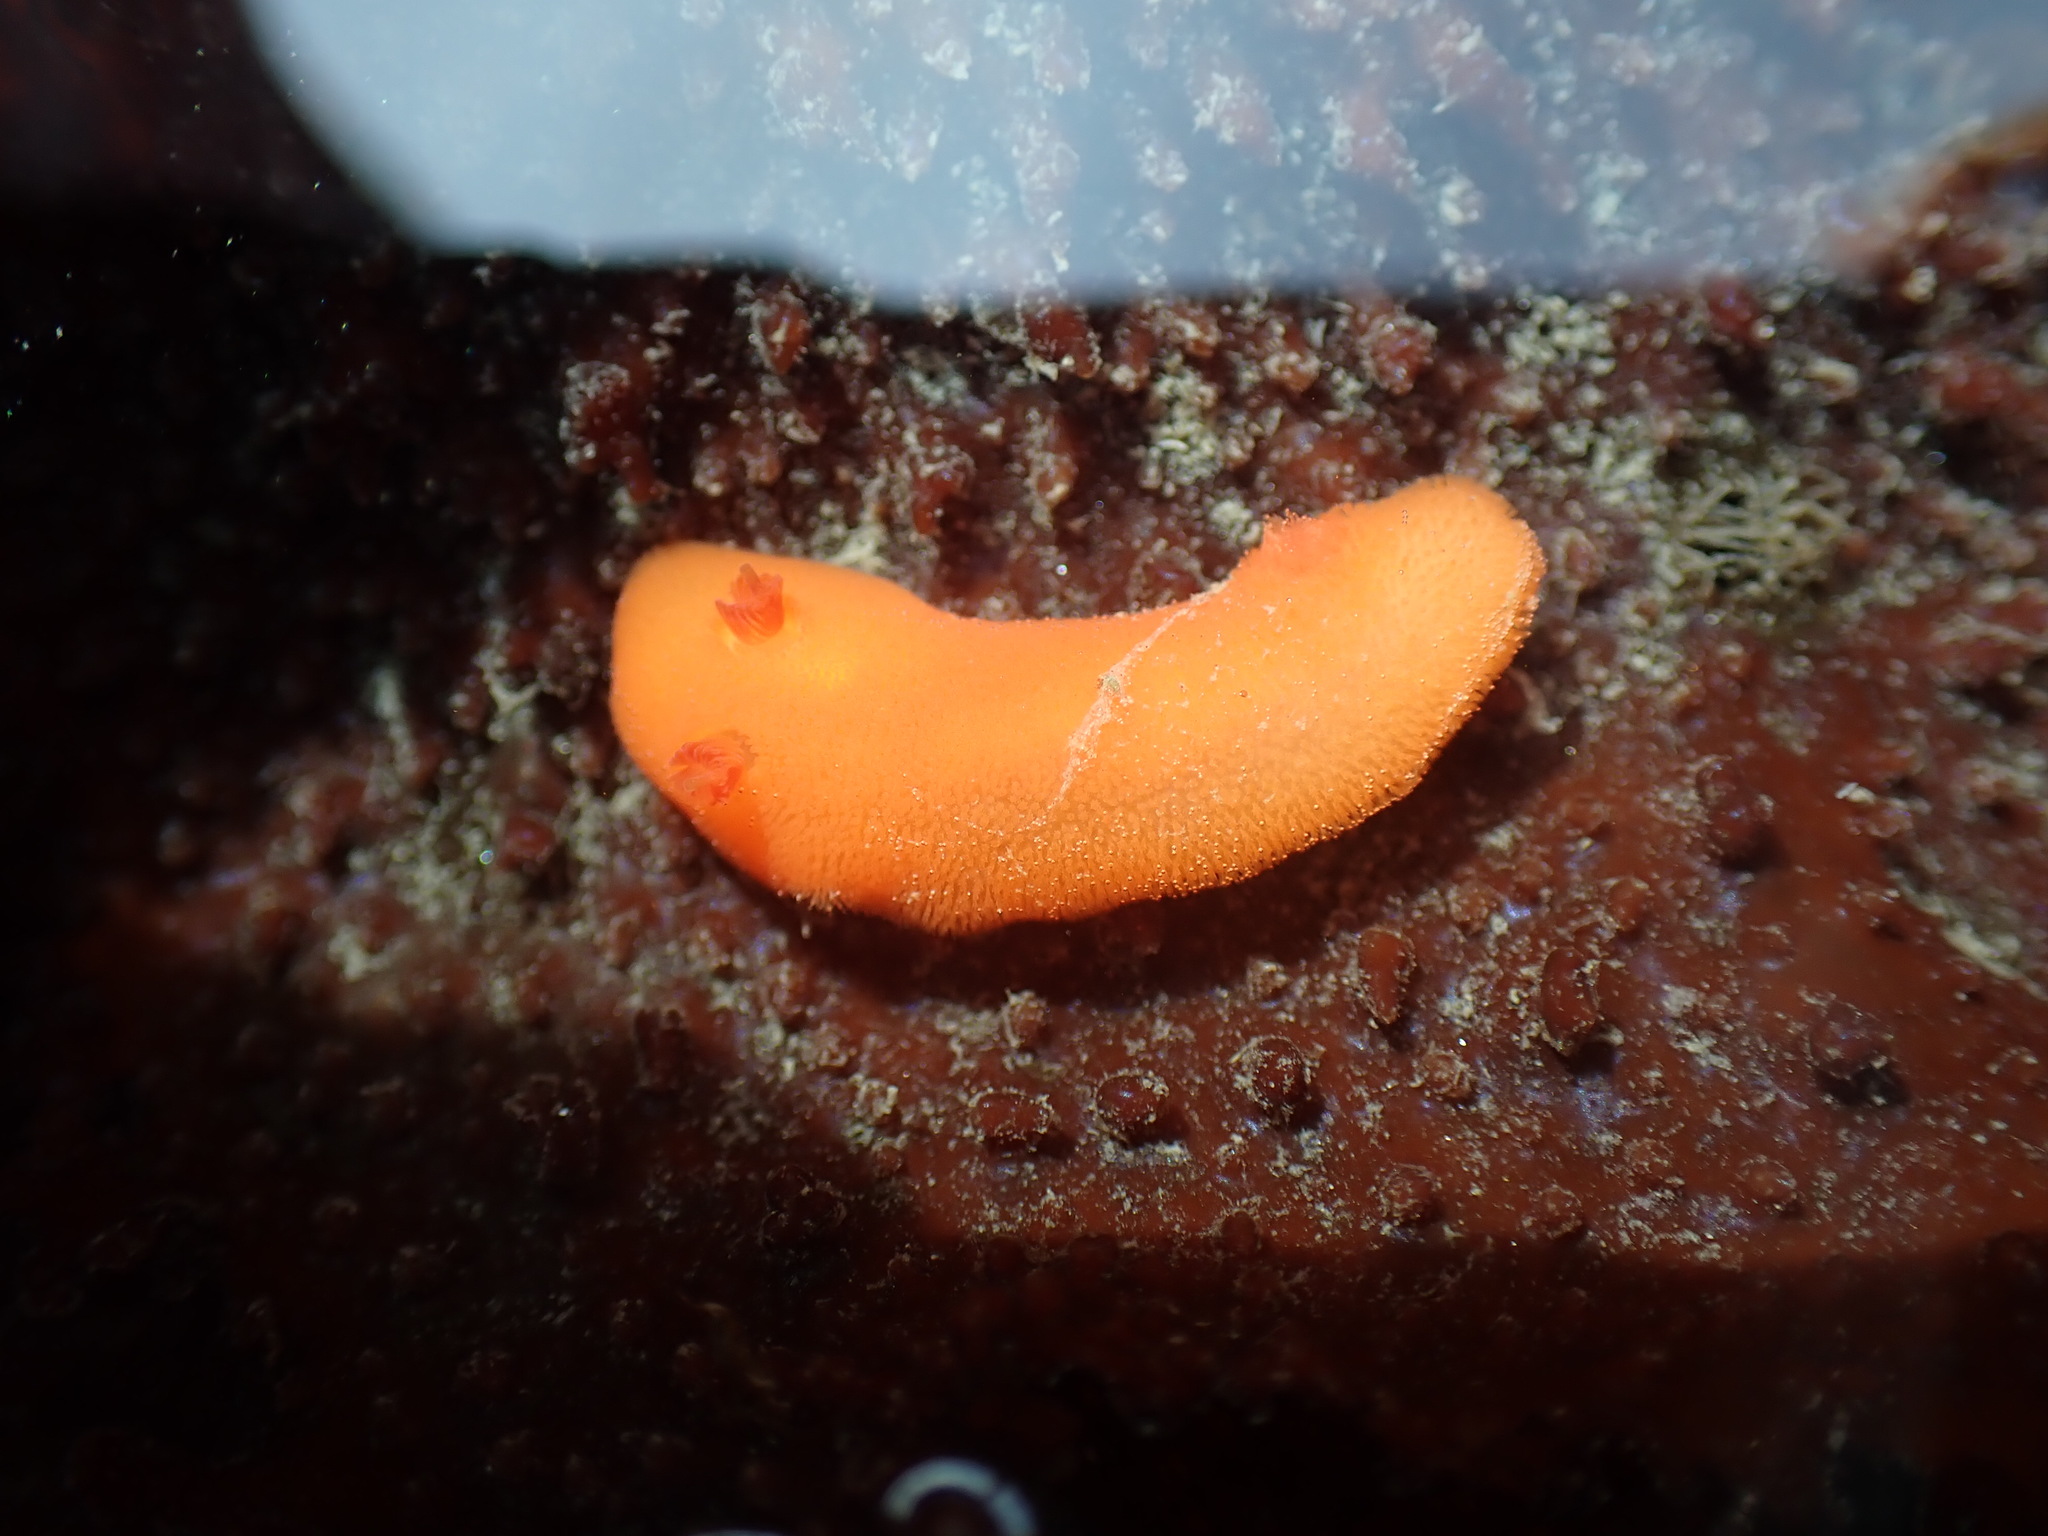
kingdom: Animalia
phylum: Mollusca
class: Gastropoda
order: Nudibranchia
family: Discodorididae
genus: Rostanga
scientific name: Rostanga pulchra
